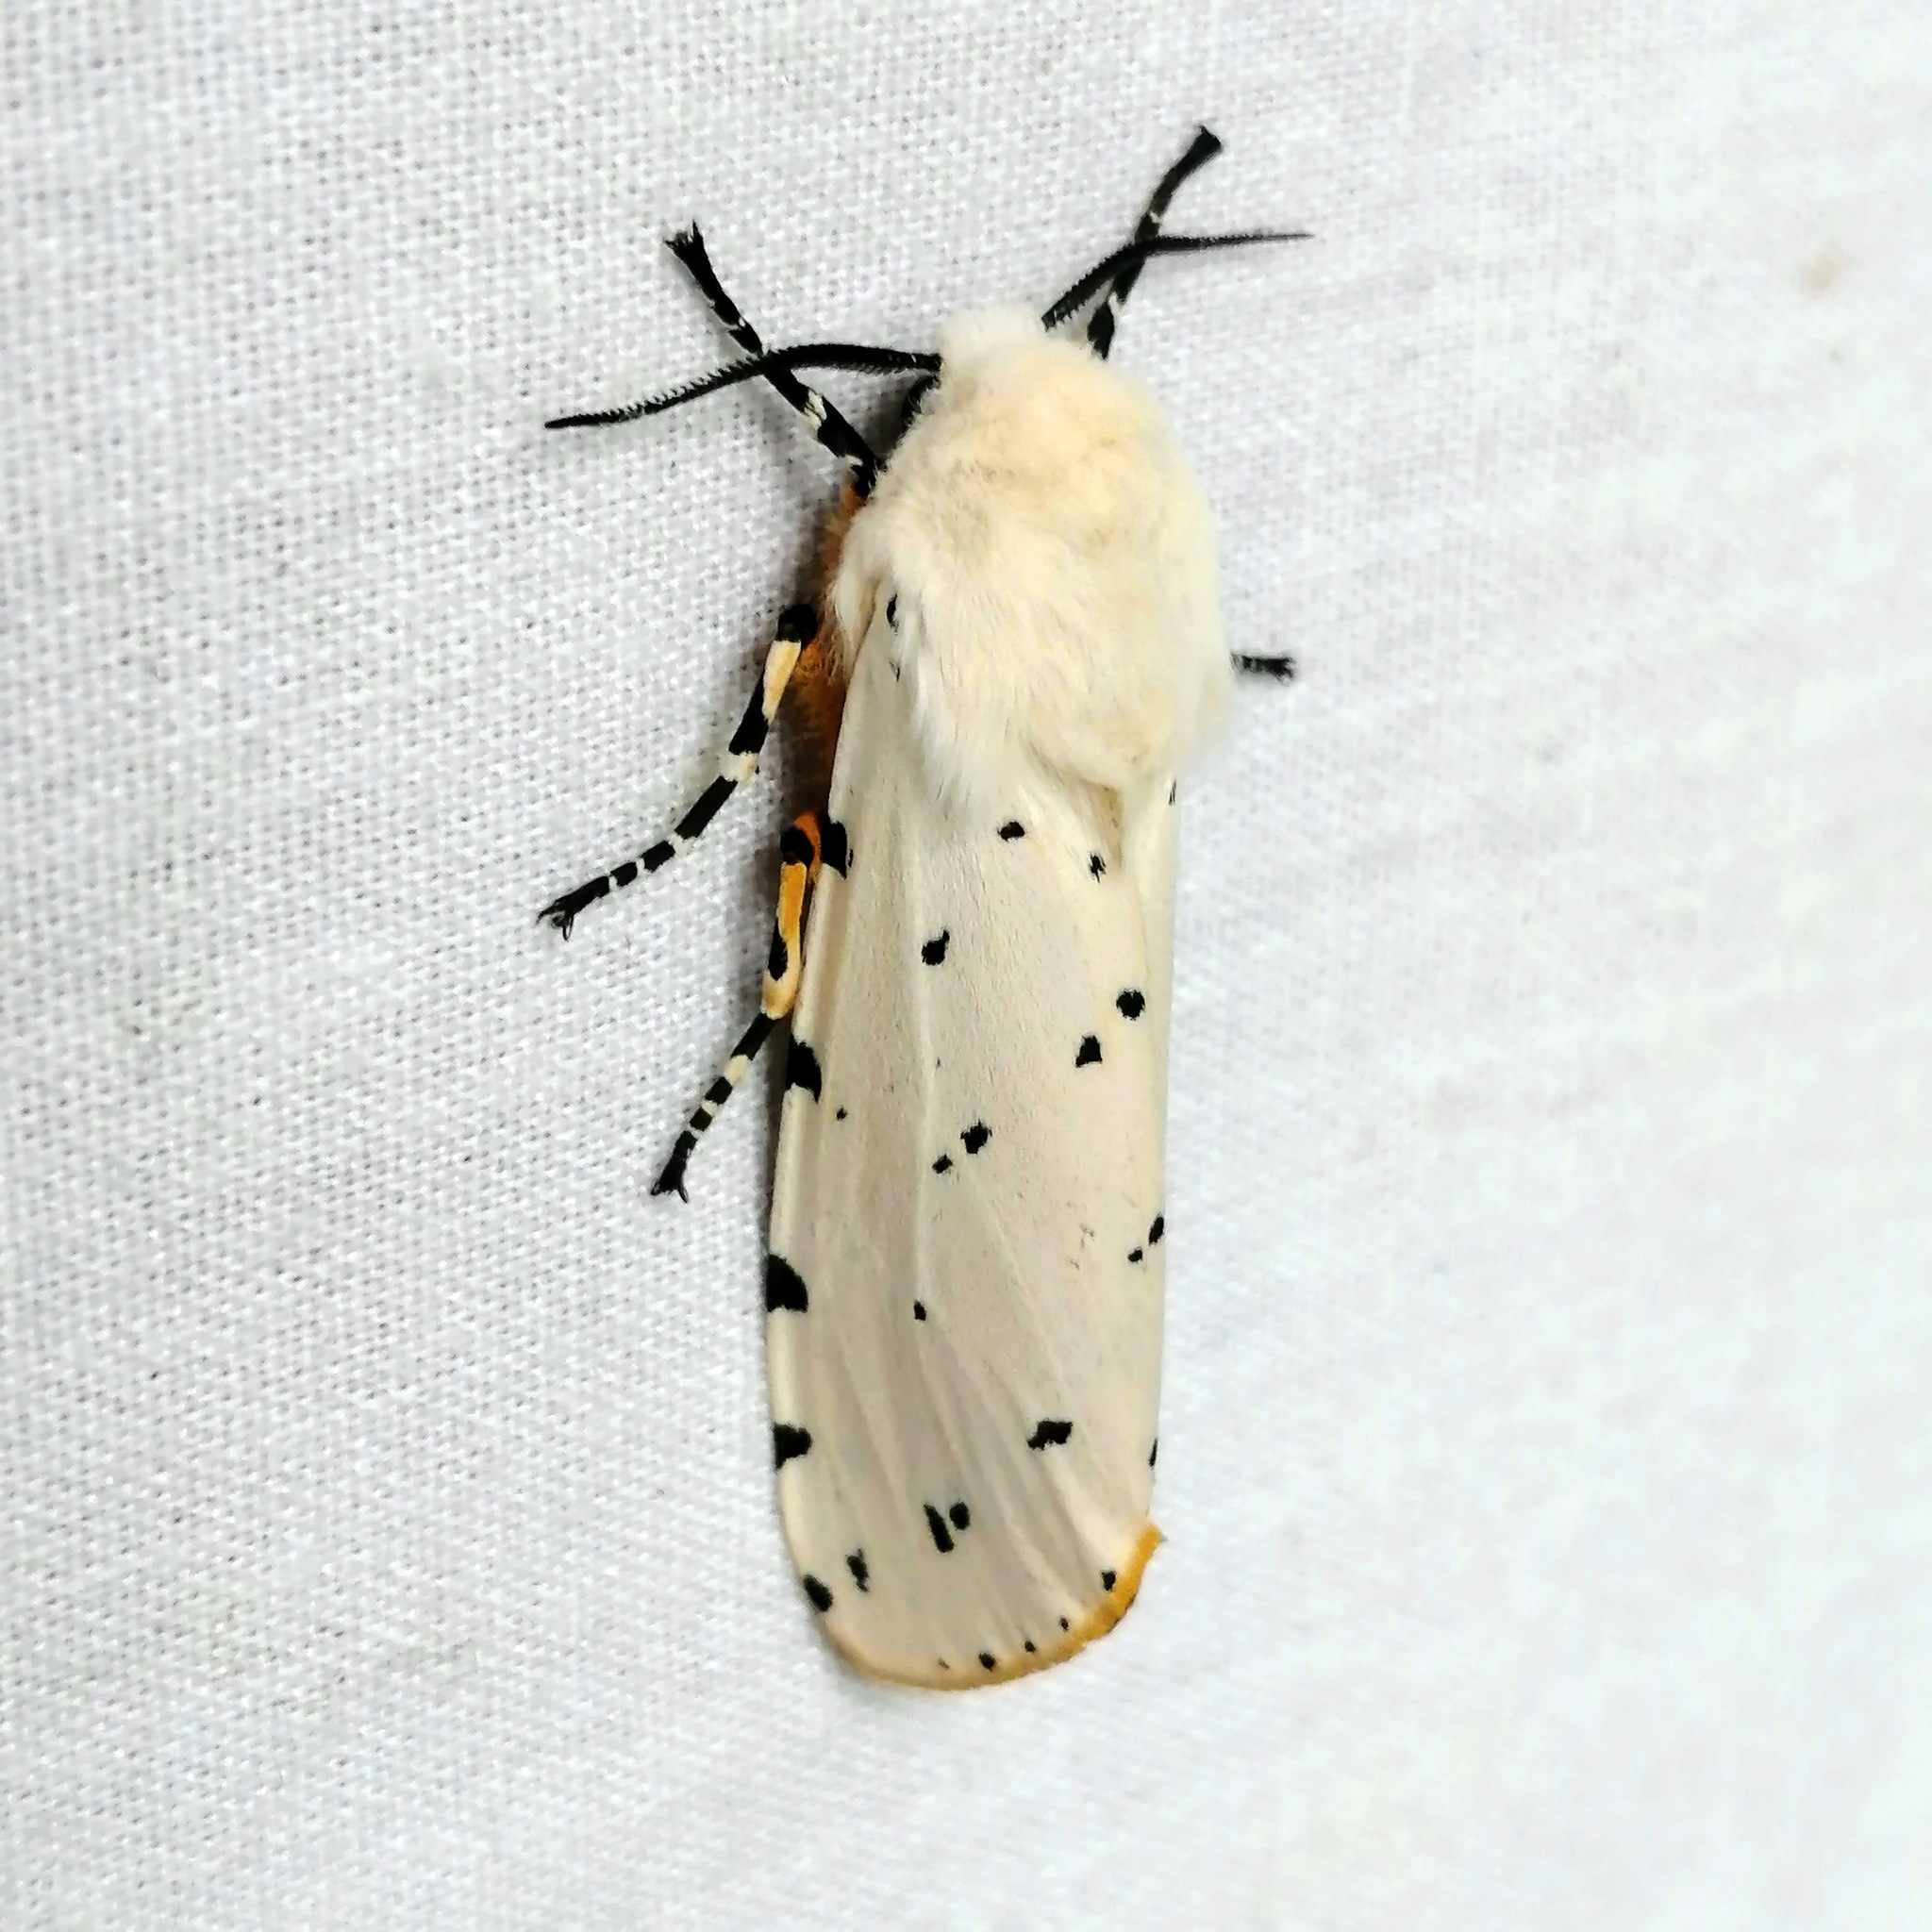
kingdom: Animalia
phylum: Arthropoda
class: Insecta
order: Lepidoptera
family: Erebidae
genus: Estigmene
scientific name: Estigmene acrea
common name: Salt marsh moth
